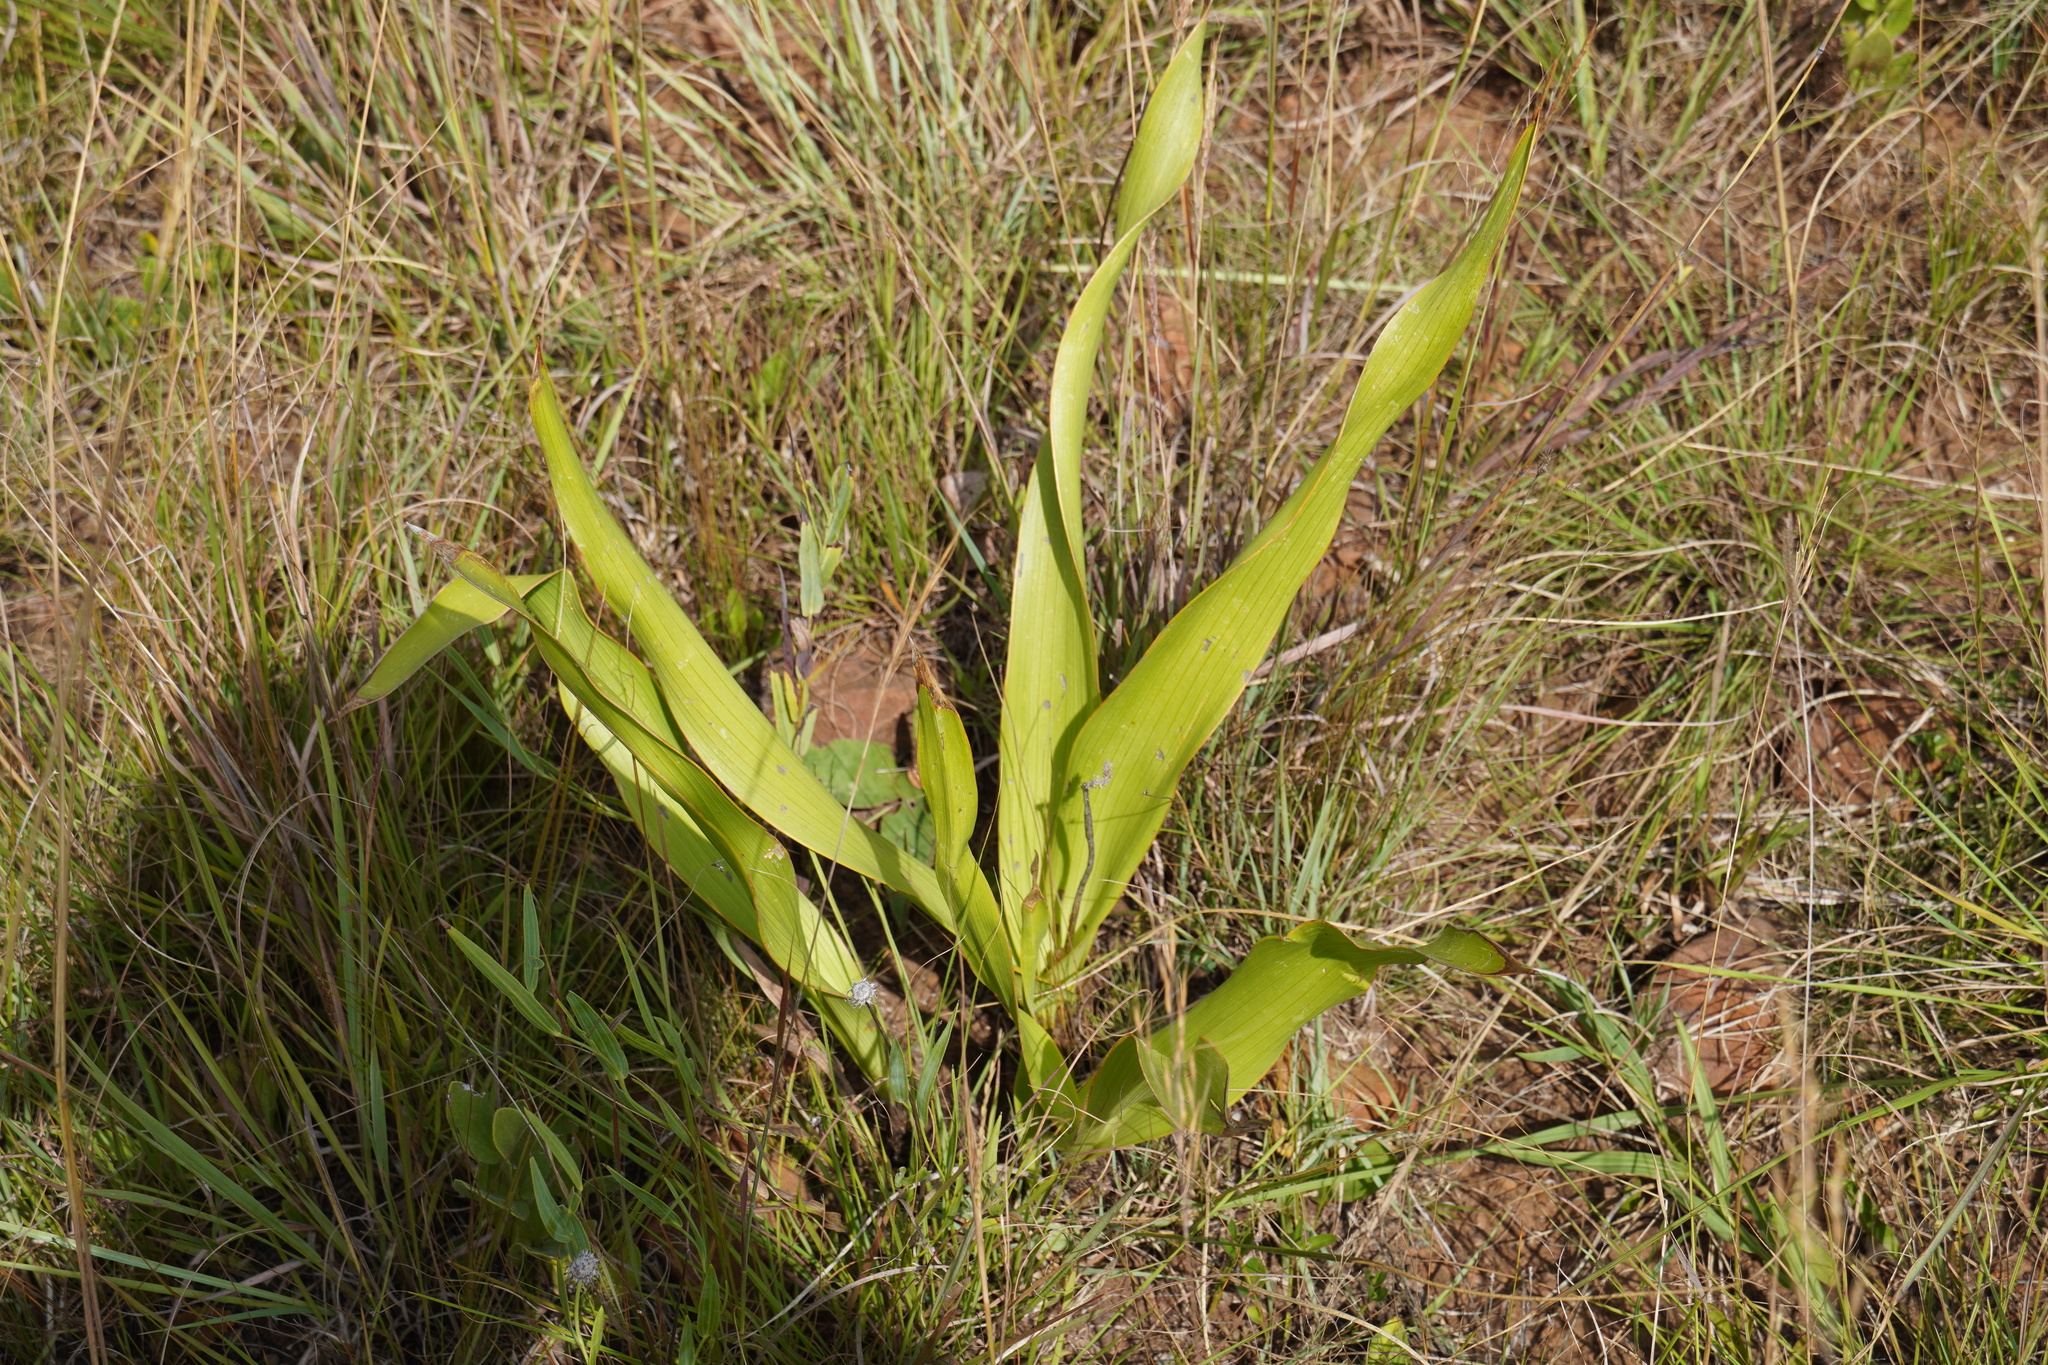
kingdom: Plantae
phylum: Tracheophyta
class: Liliopsida
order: Asparagales
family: Asparagaceae
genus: Schizocarphus
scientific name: Schizocarphus nervosus
